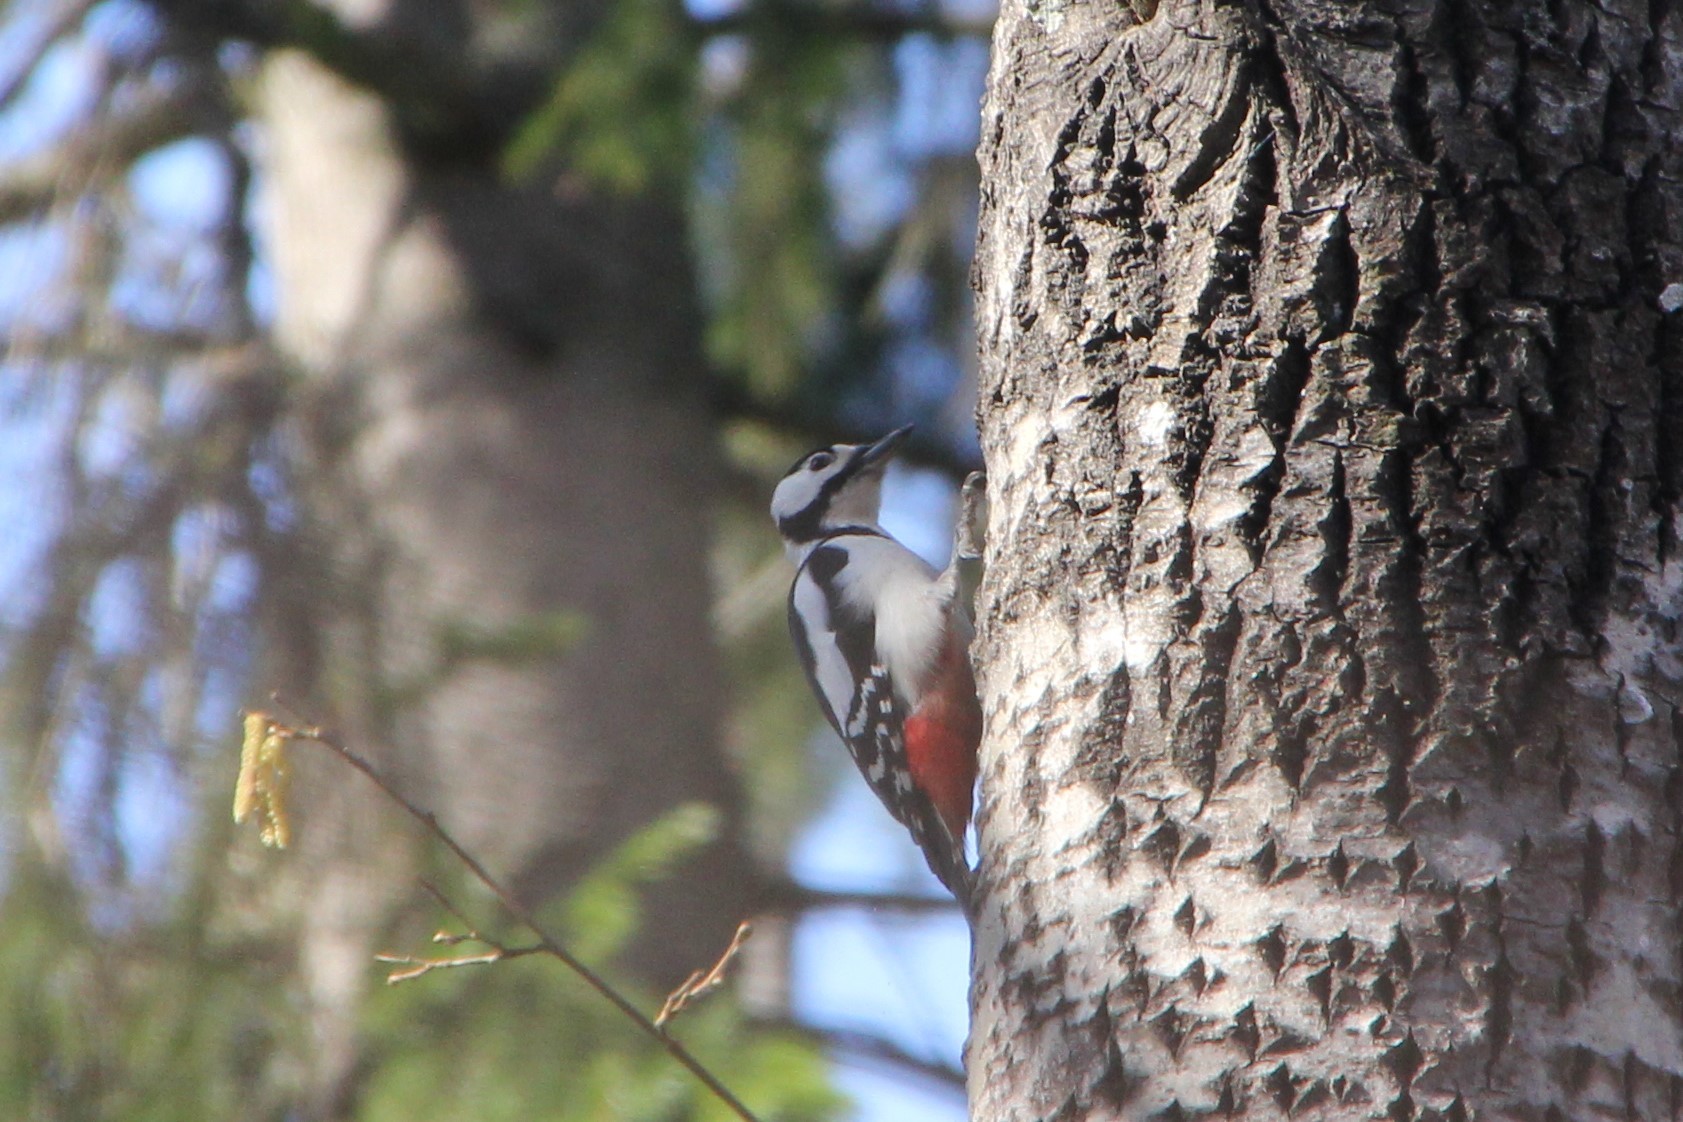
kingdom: Animalia
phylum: Chordata
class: Aves
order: Piciformes
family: Picidae
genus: Dendrocopos
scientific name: Dendrocopos major
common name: Great spotted woodpecker
